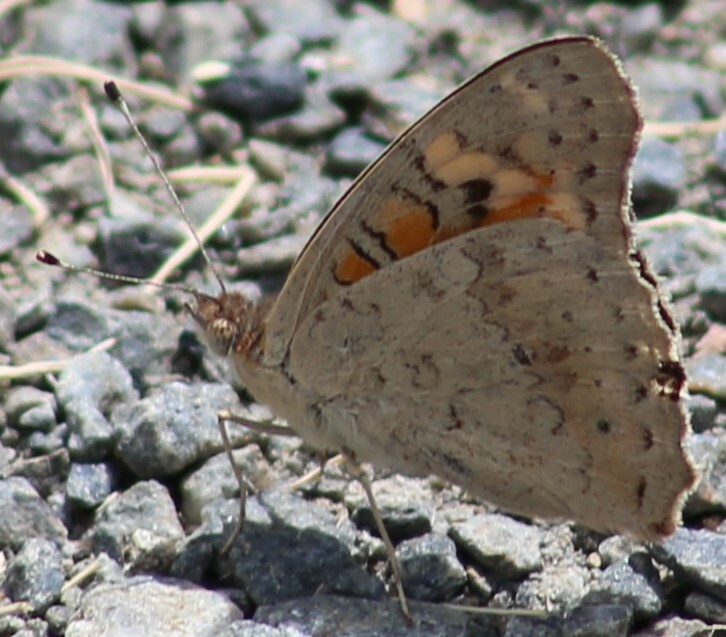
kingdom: Animalia
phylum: Arthropoda
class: Insecta
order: Lepidoptera
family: Nymphalidae
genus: Junonia
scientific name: Junonia villida
